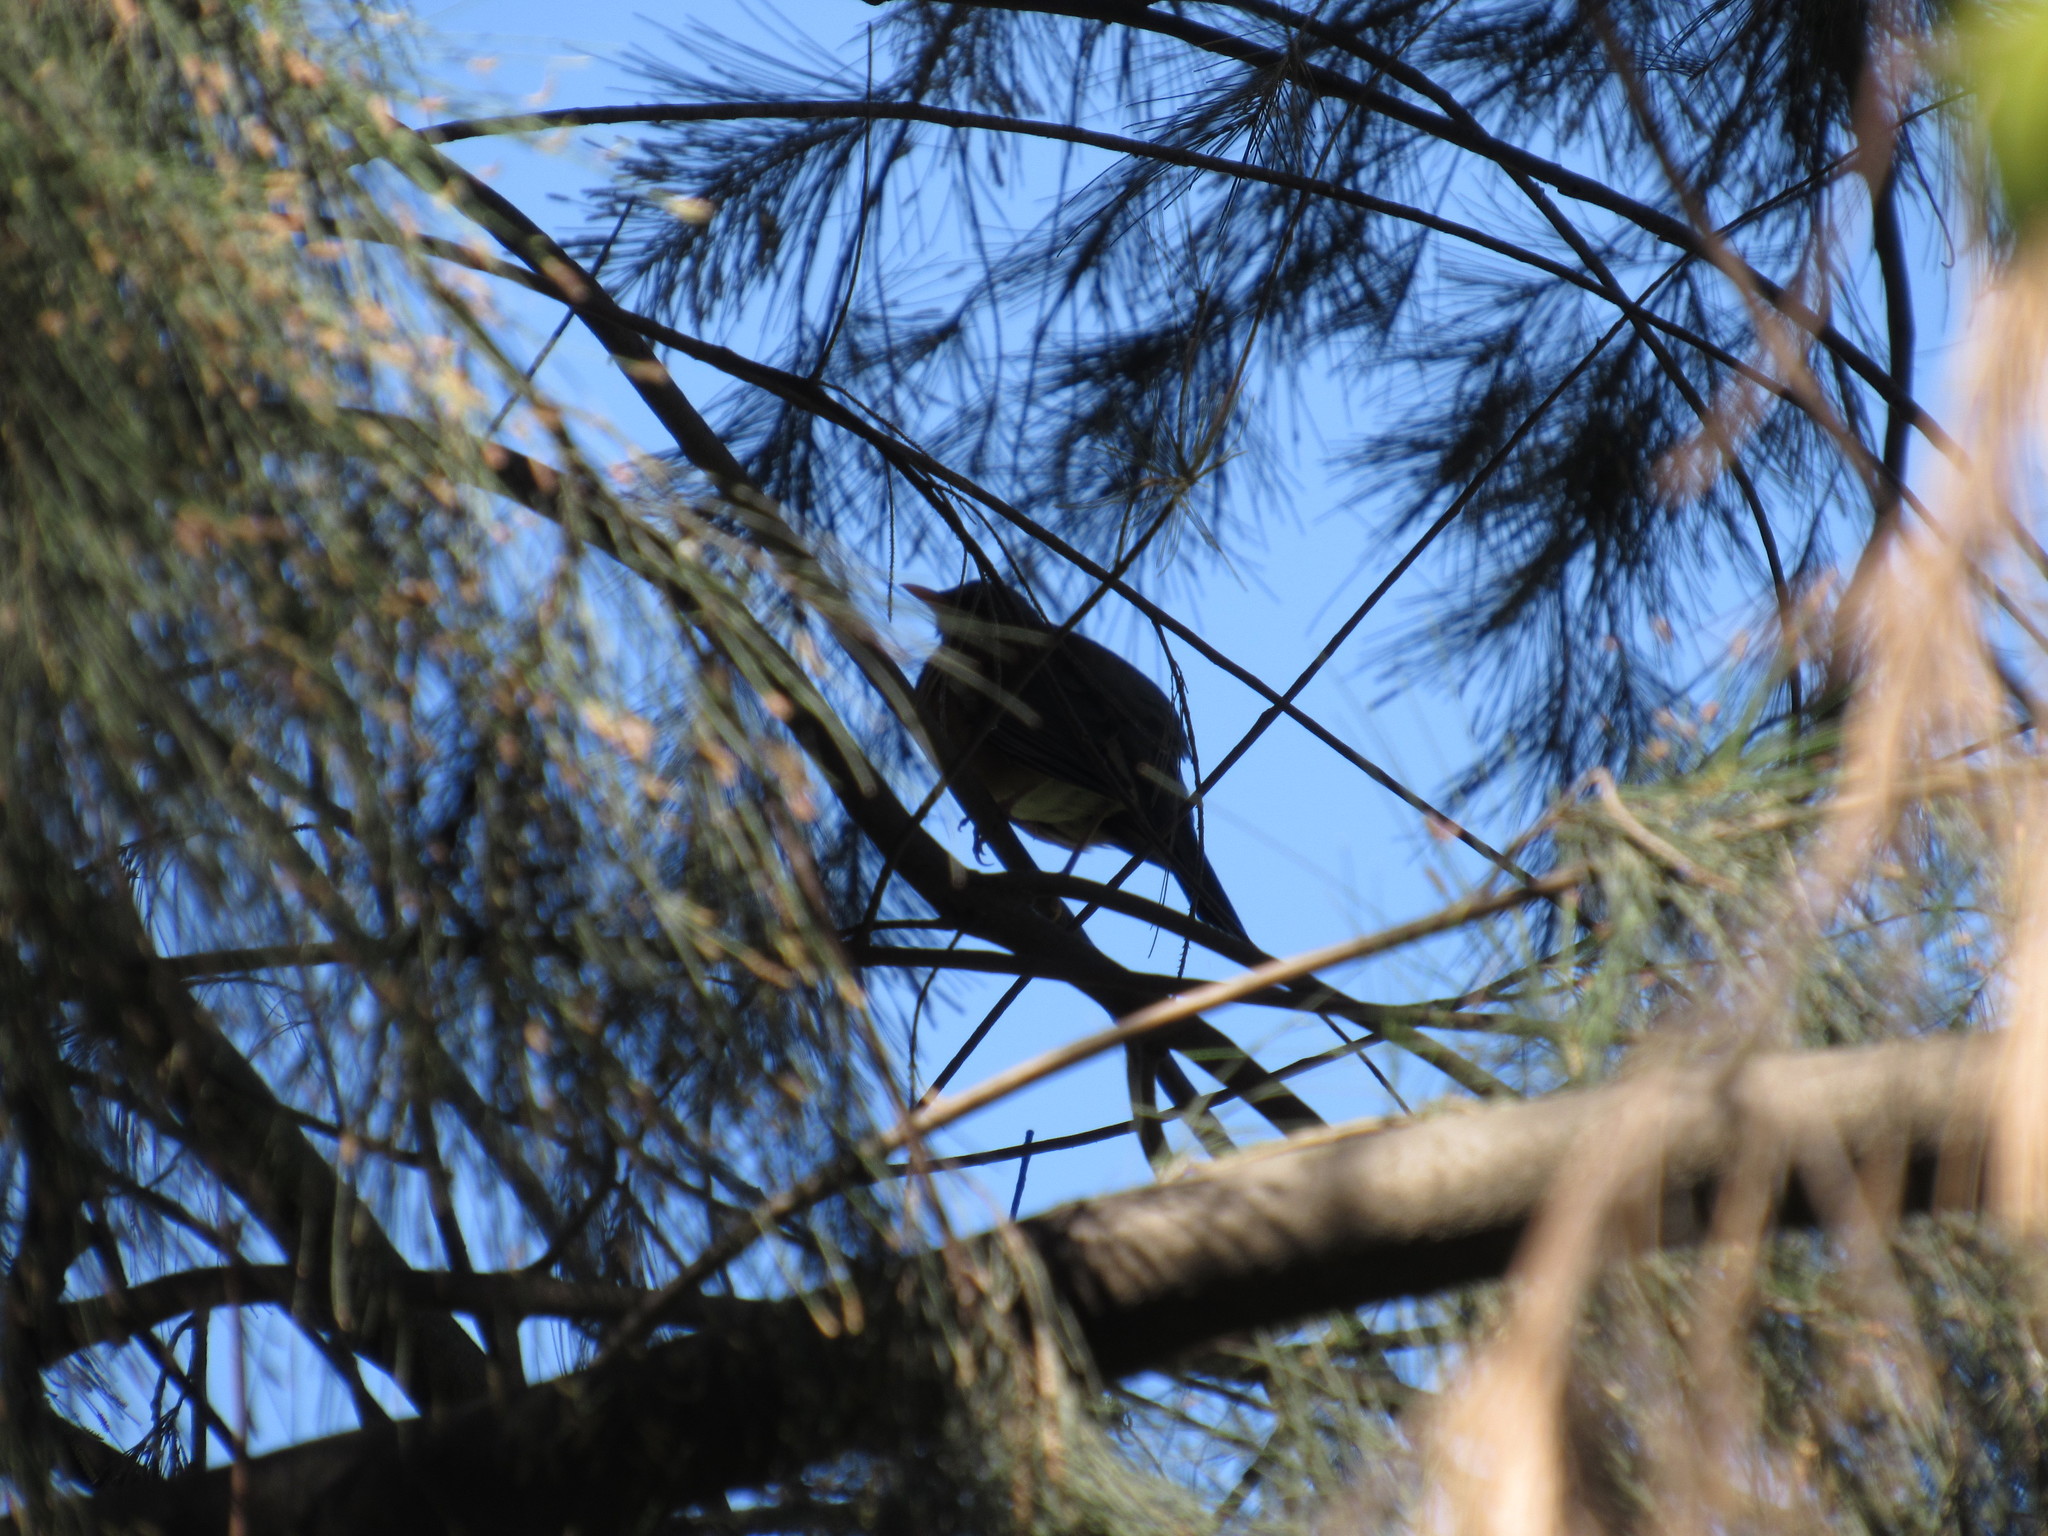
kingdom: Animalia
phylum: Chordata
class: Aves
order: Passeriformes
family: Turdidae
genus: Turdus
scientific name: Turdus rufopalliatus
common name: Rufous-backed robin
